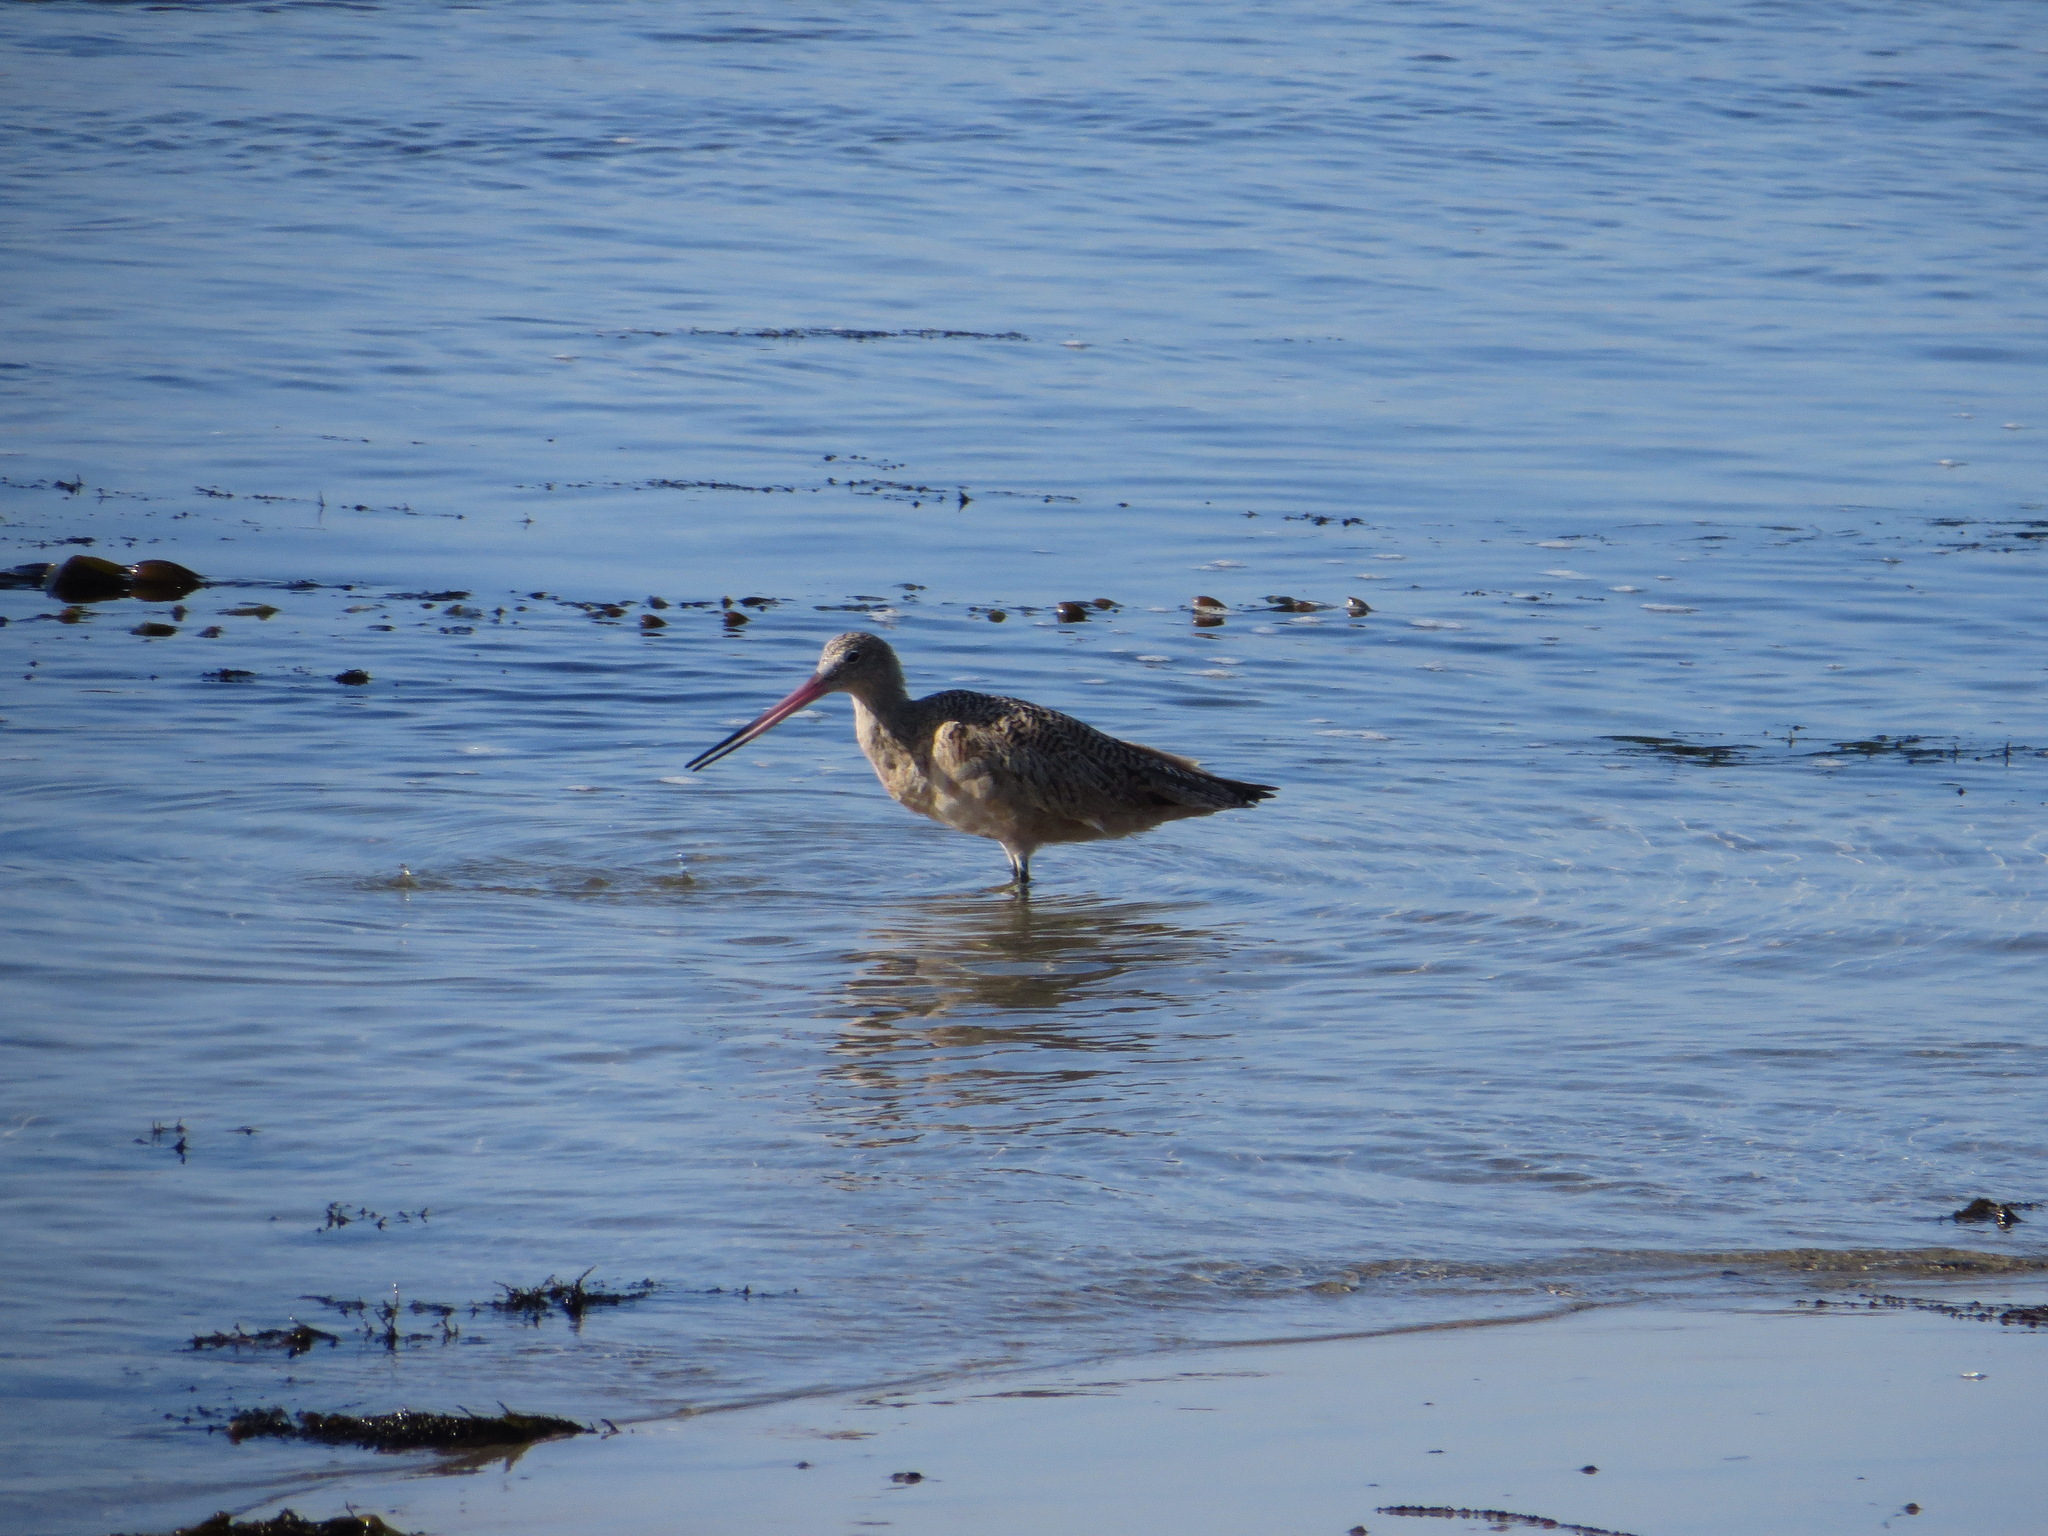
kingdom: Animalia
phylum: Chordata
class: Aves
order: Charadriiformes
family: Scolopacidae
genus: Limosa
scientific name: Limosa fedoa
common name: Marbled godwit
